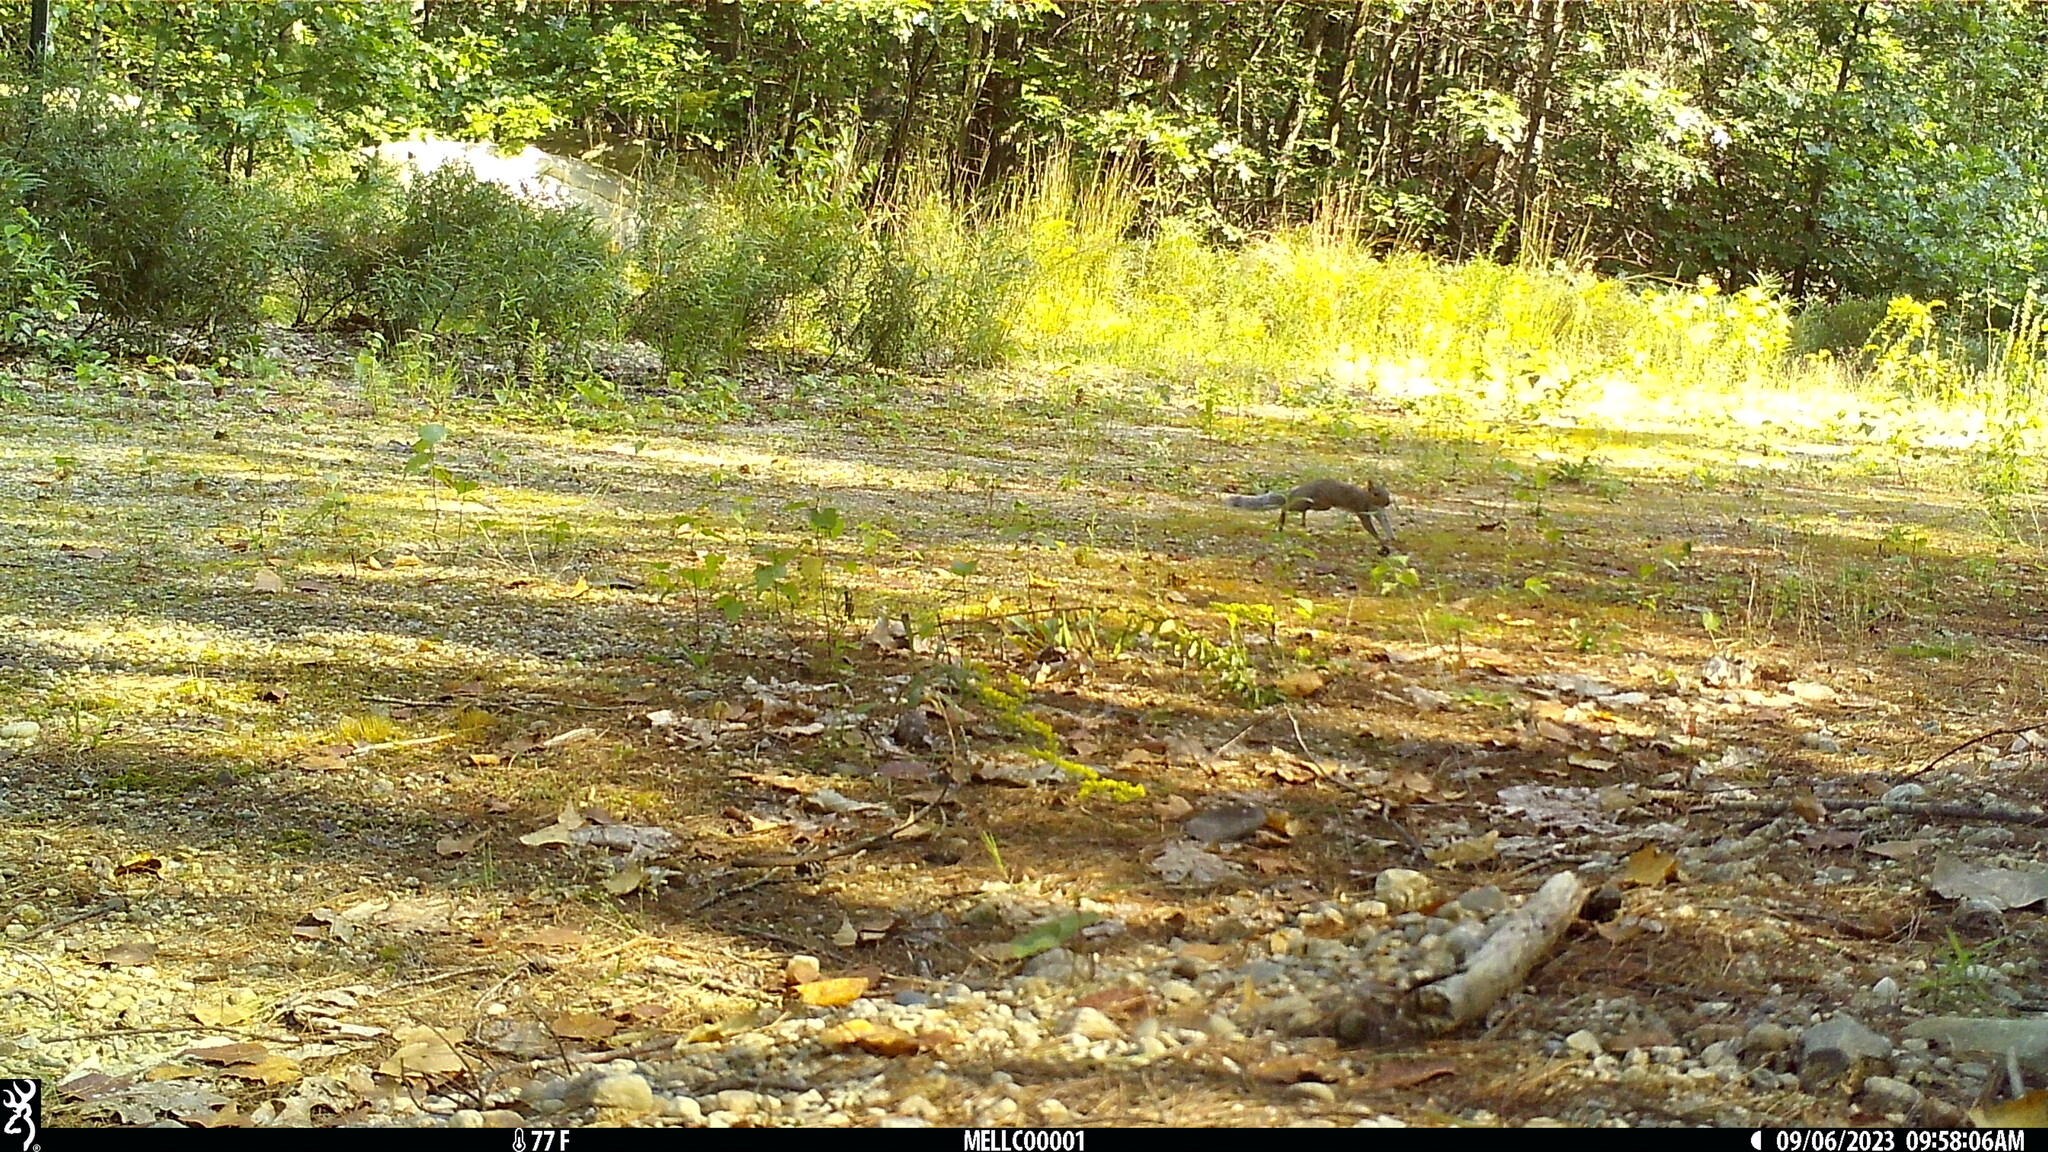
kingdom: Animalia
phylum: Chordata
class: Mammalia
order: Rodentia
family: Sciuridae
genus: Sciurus
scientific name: Sciurus carolinensis
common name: Eastern gray squirrel
